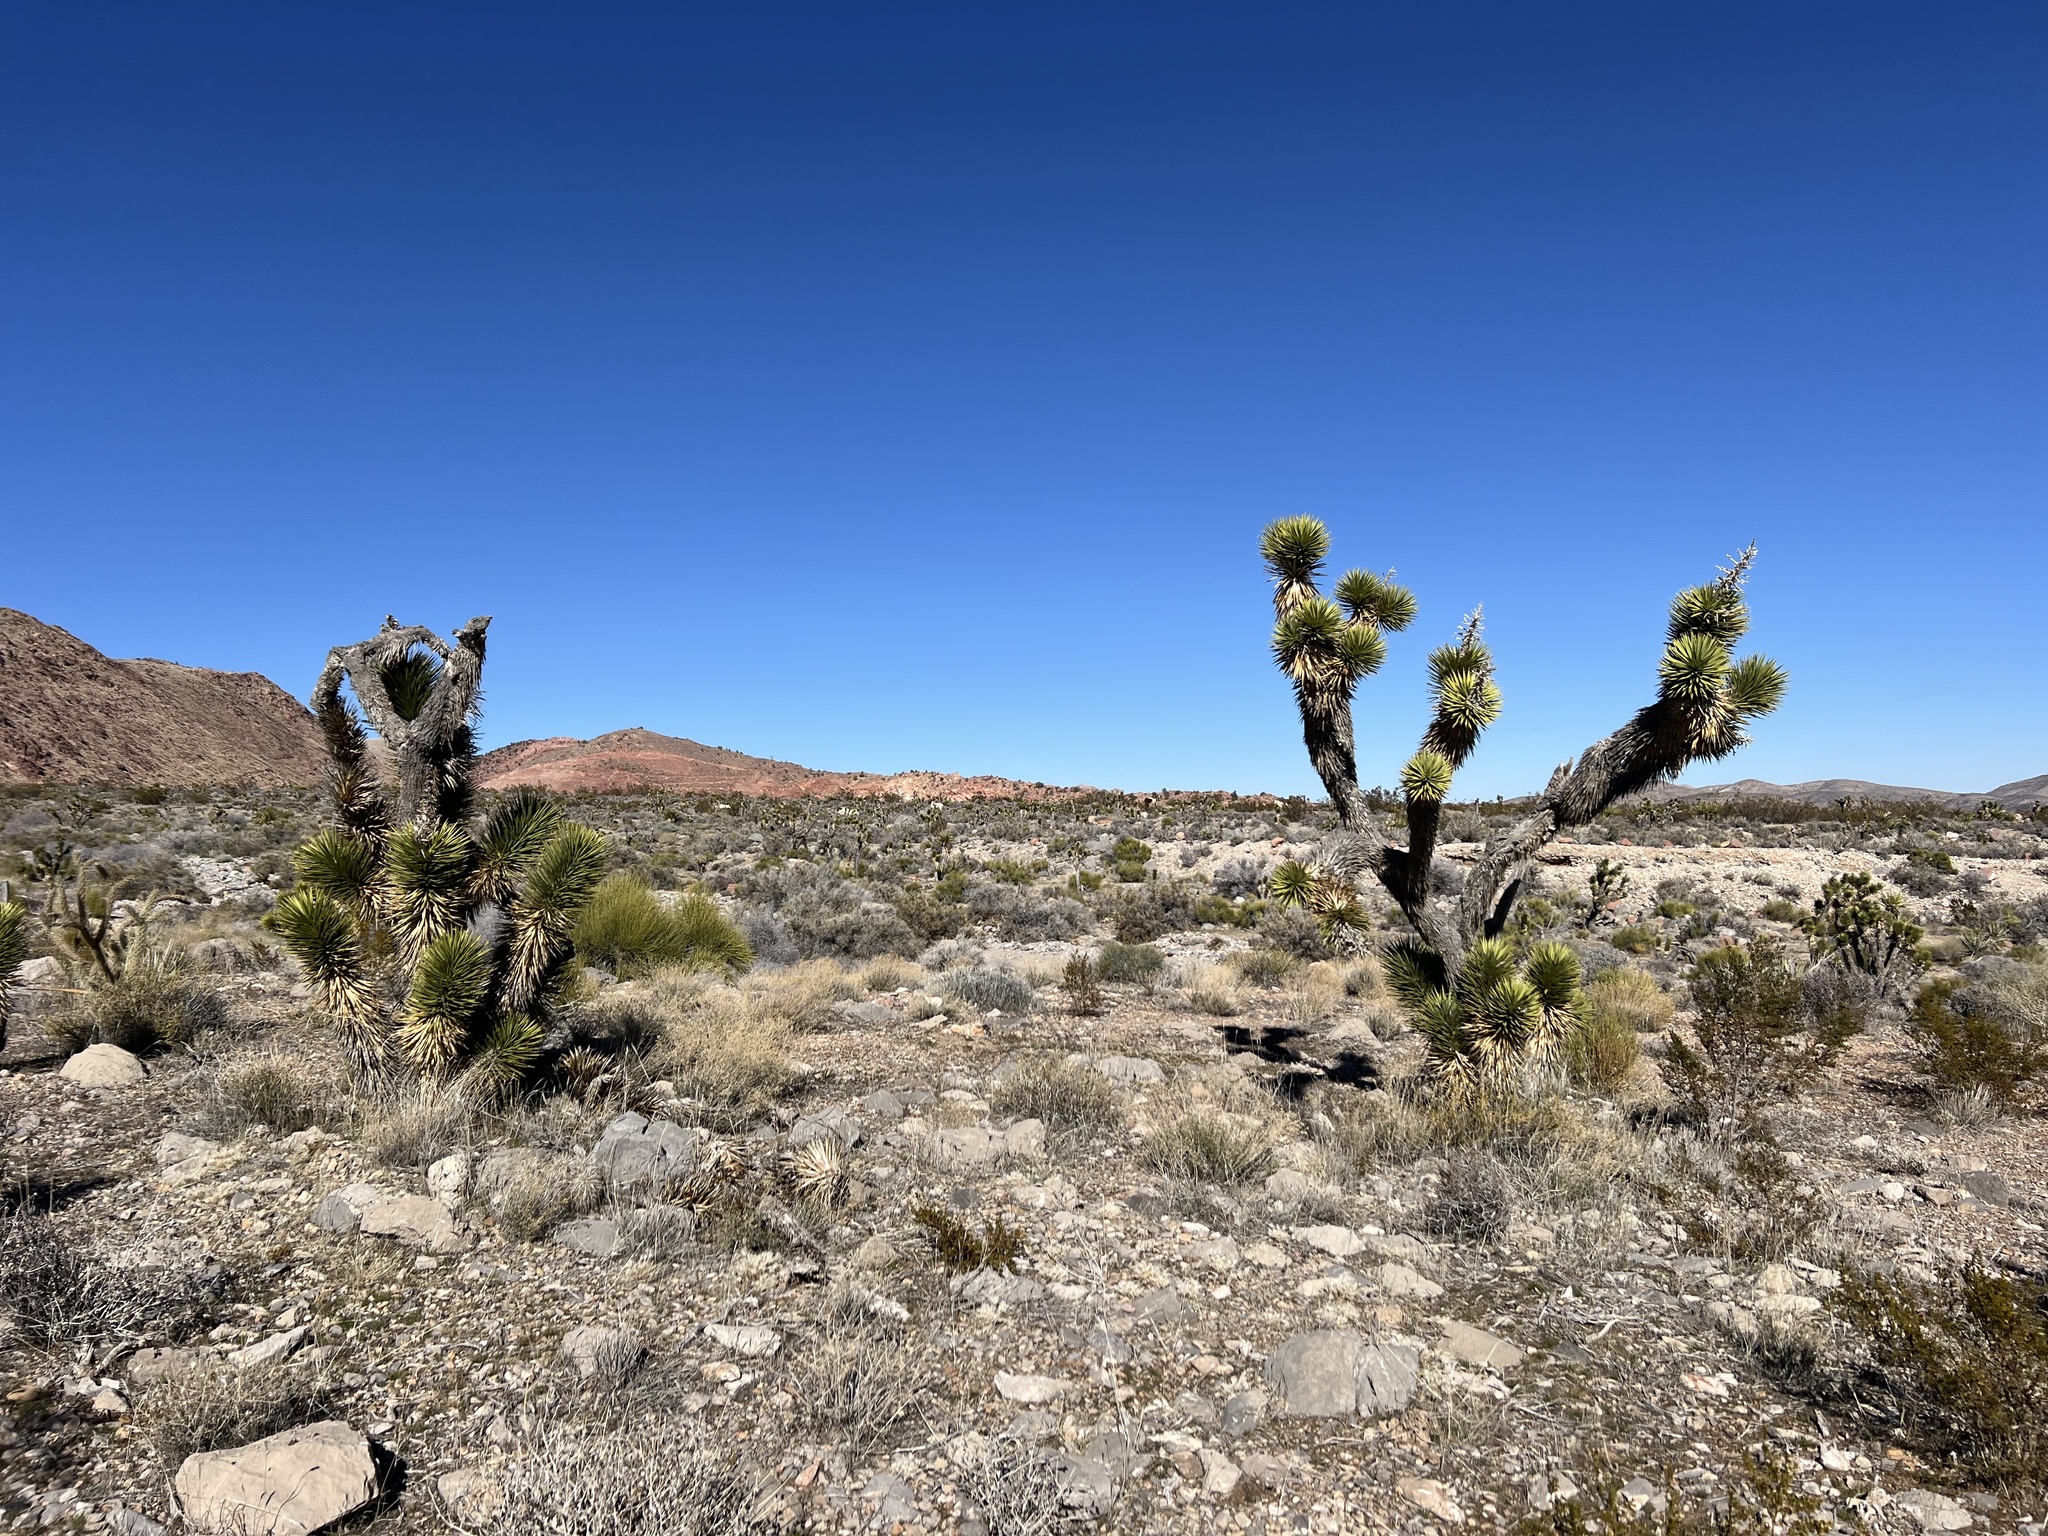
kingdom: Plantae
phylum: Tracheophyta
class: Liliopsida
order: Asparagales
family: Asparagaceae
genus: Yucca
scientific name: Yucca brevifolia
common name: Joshua tree
